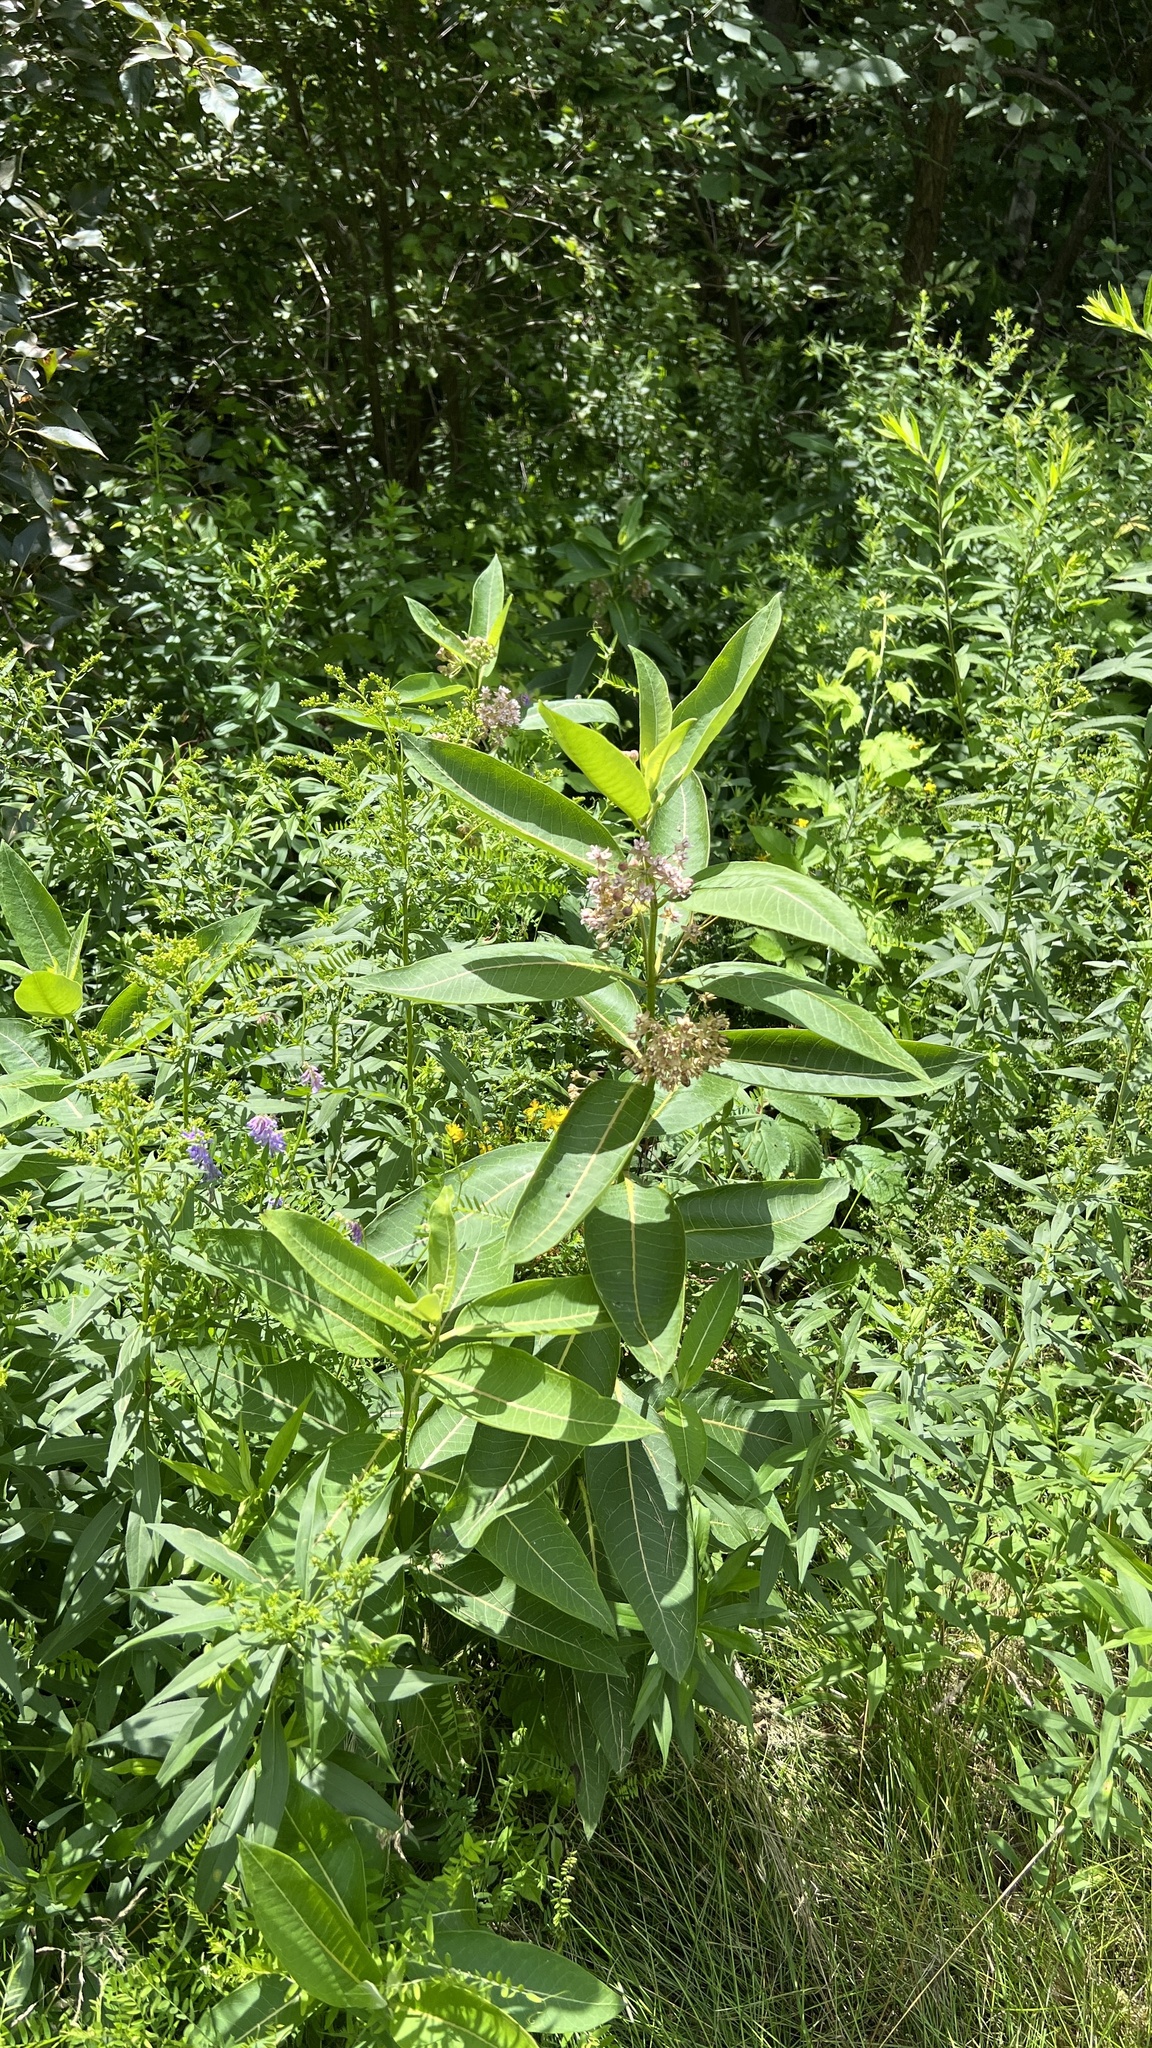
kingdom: Plantae
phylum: Tracheophyta
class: Magnoliopsida
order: Gentianales
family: Apocynaceae
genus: Asclepias
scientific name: Asclepias syriaca
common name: Common milkweed
